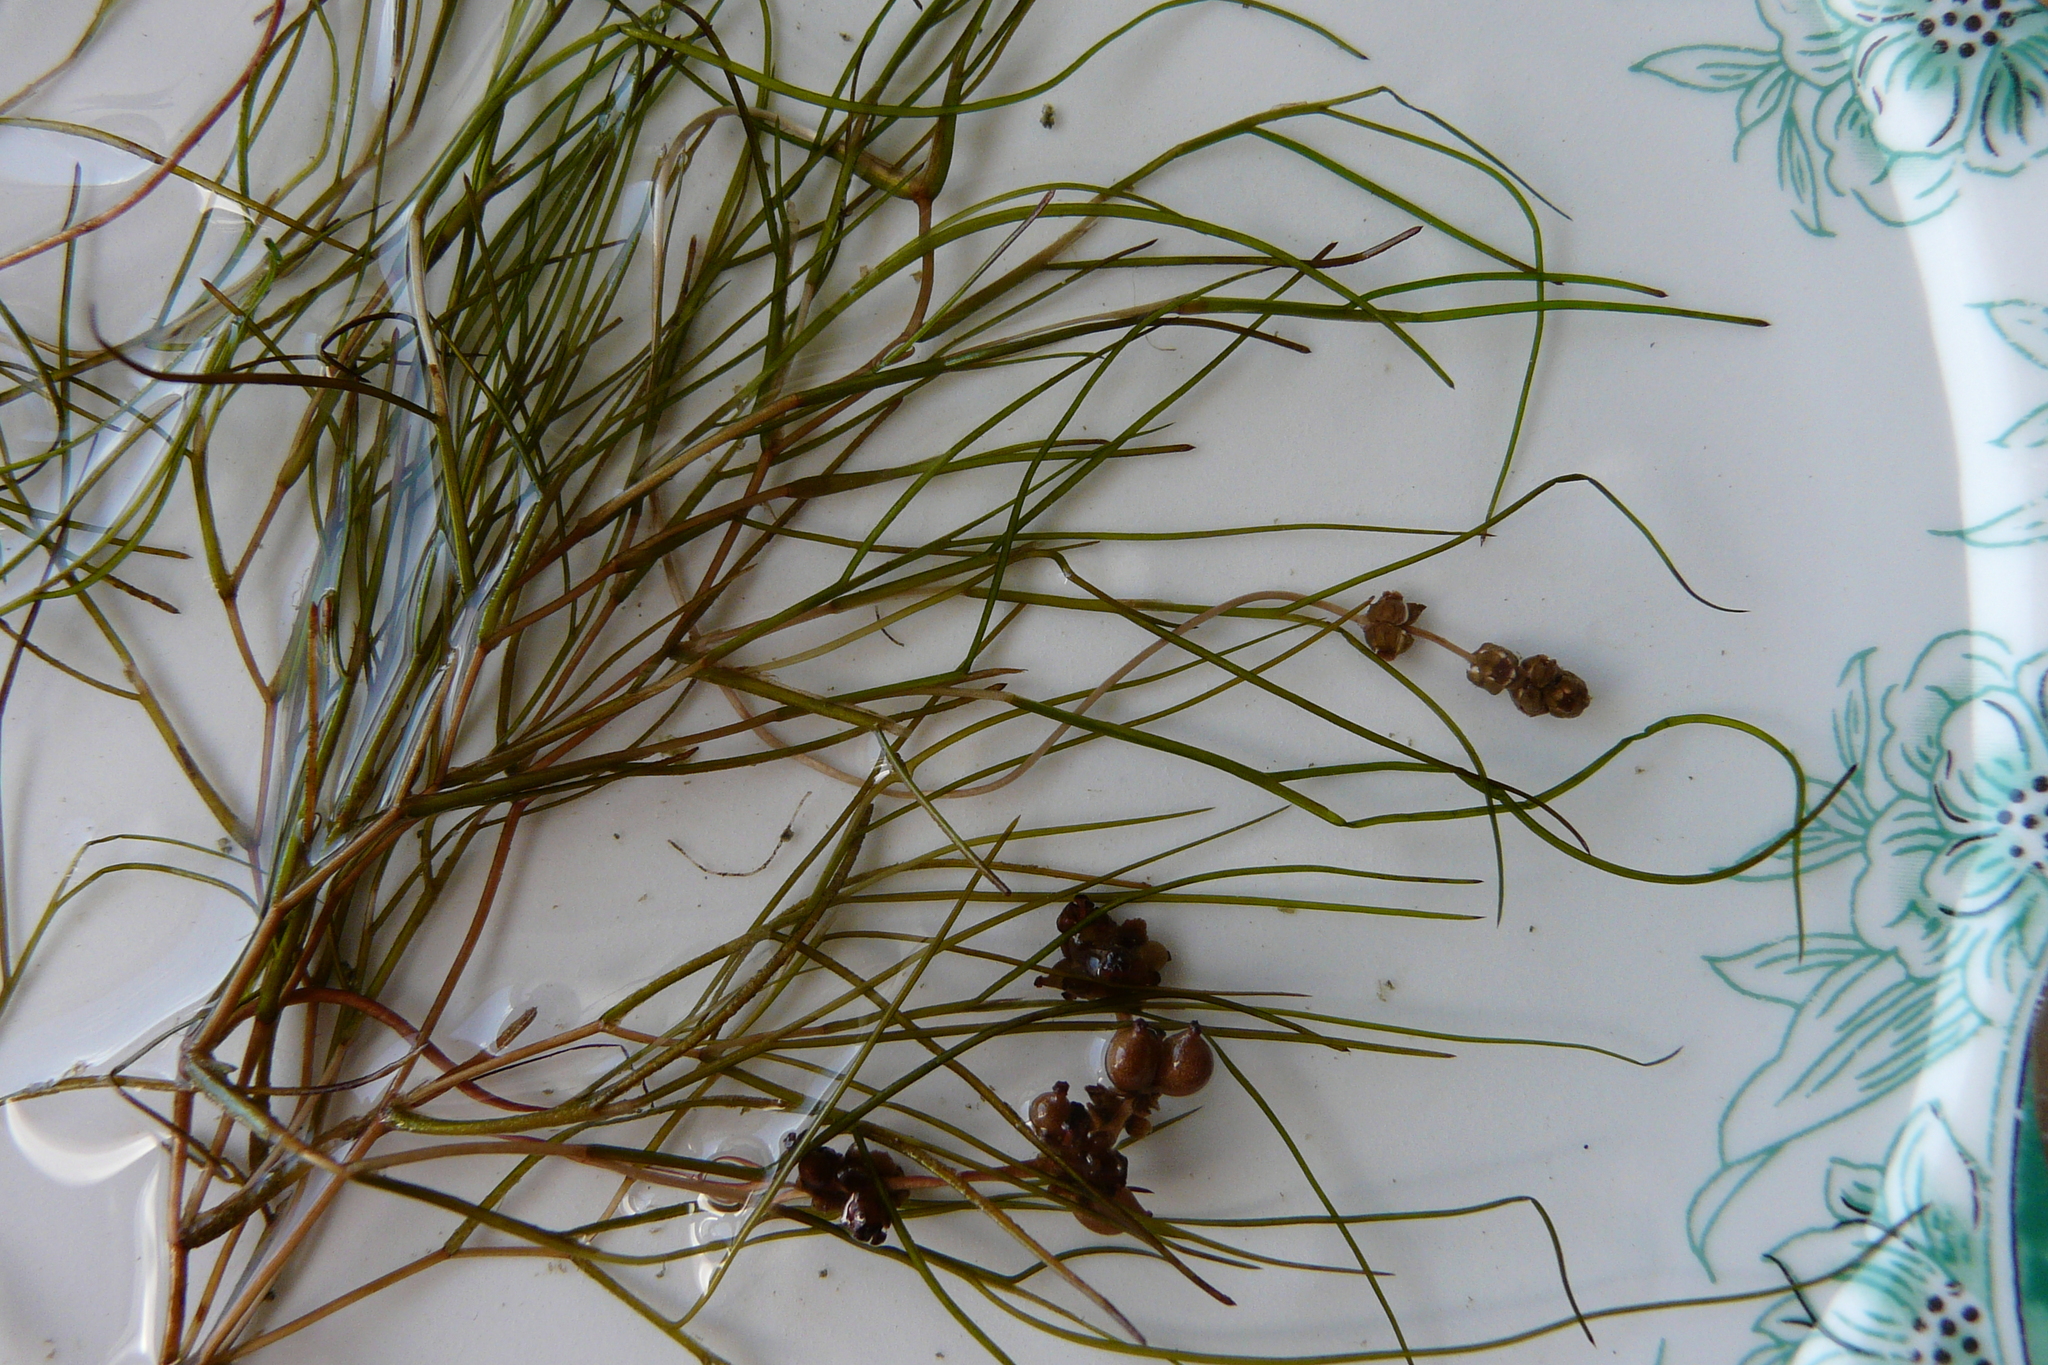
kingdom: Plantae
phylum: Tracheophyta
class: Liliopsida
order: Alismatales
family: Potamogetonaceae
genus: Stuckenia
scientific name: Stuckenia pectinata
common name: Sago pondweed
